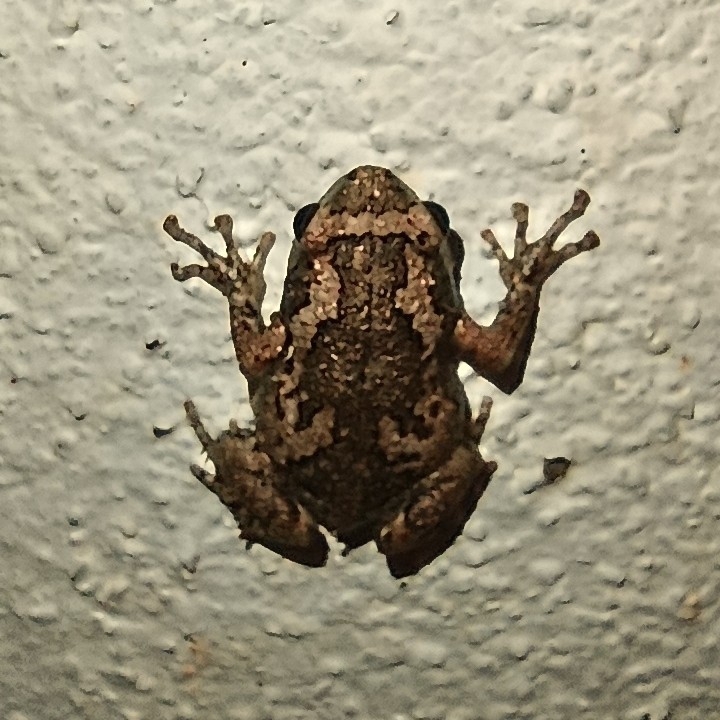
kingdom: Animalia
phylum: Chordata
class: Amphibia
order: Anura
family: Microhylidae
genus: Uperodon
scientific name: Uperodon taprobanicus
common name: Ceylon kaloula
